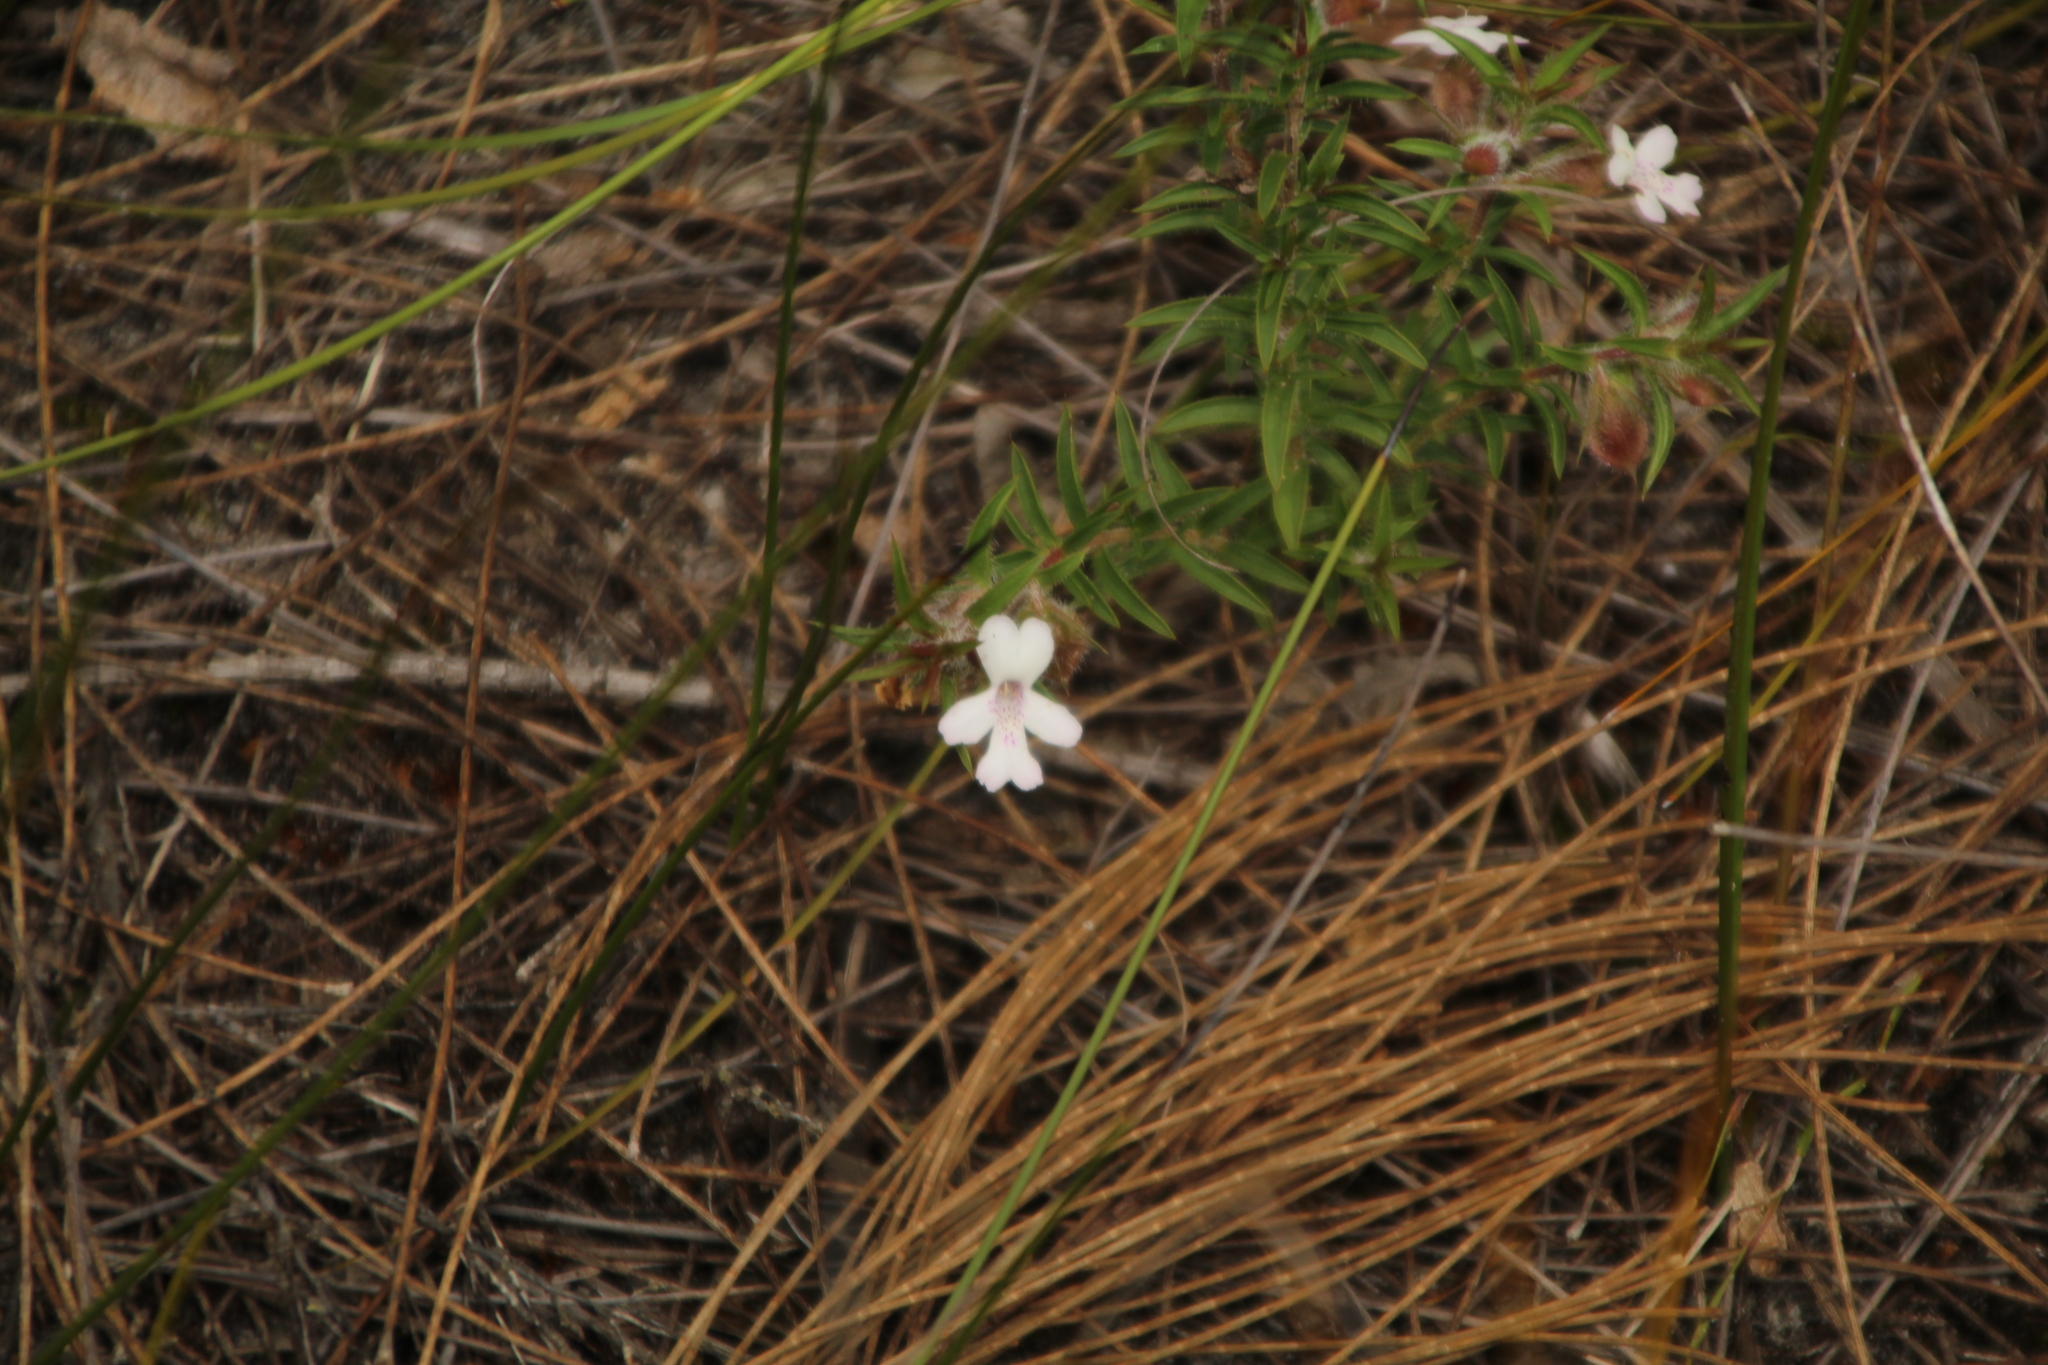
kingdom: Plantae
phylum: Tracheophyta
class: Magnoliopsida
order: Lamiales
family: Lamiaceae
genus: Hemiandra
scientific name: Hemiandra pungens
